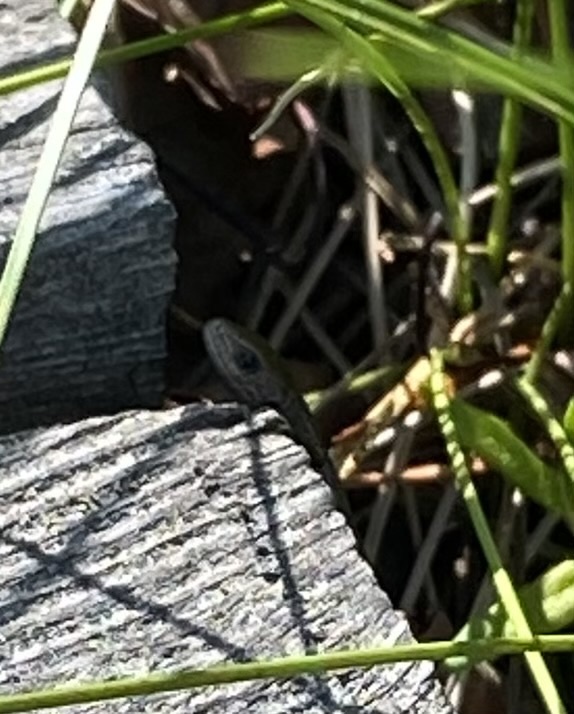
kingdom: Animalia
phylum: Chordata
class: Squamata
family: Lacertidae
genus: Zootoca
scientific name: Zootoca vivipara
